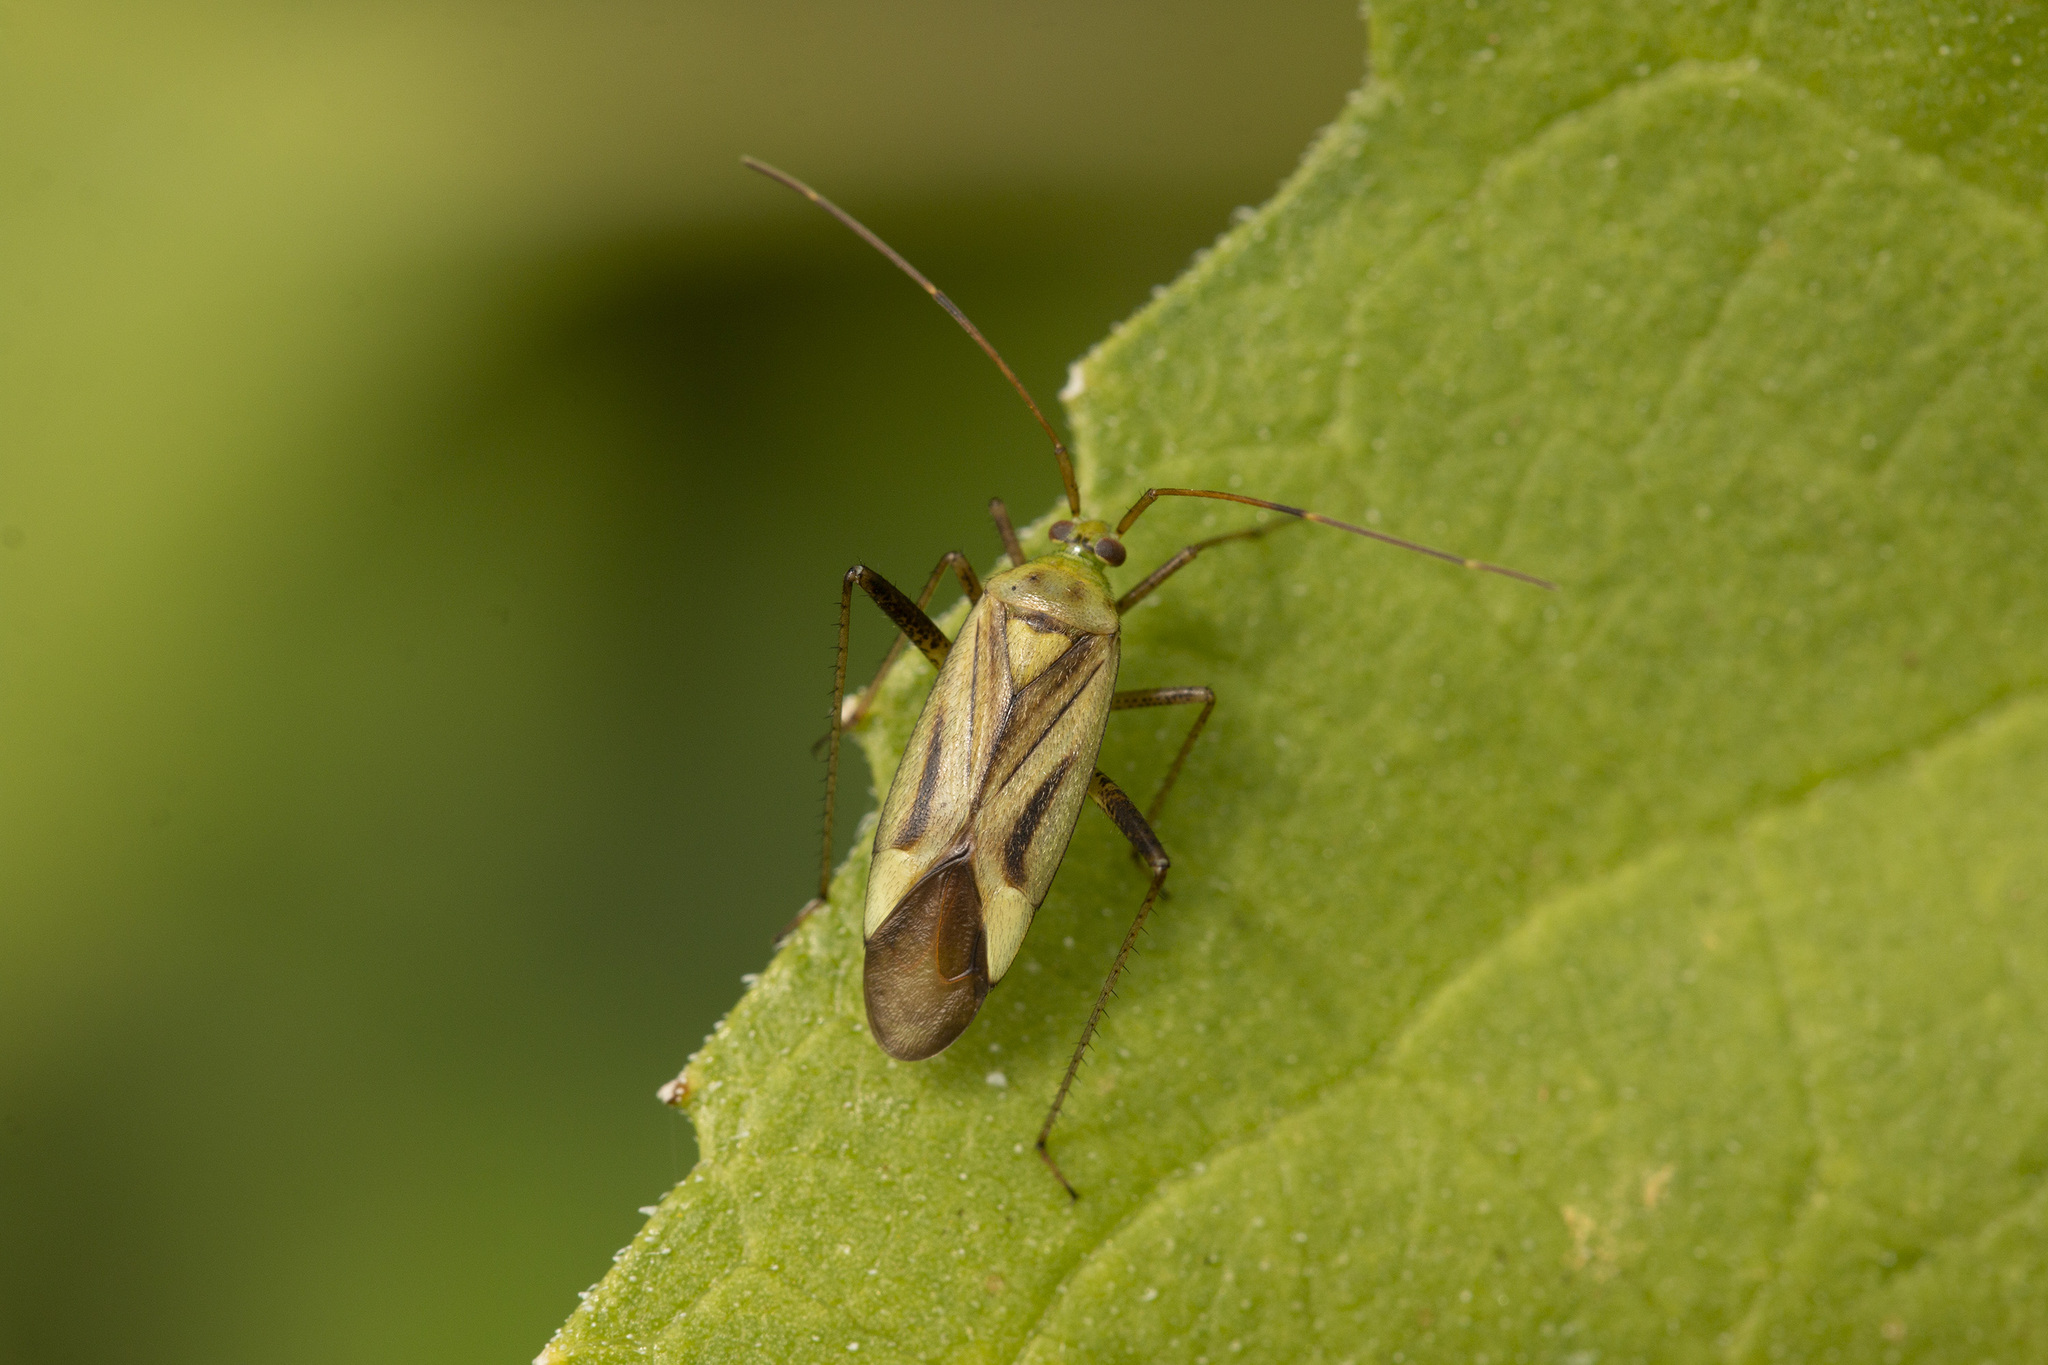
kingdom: Animalia
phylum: Arthropoda
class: Insecta
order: Hemiptera
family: Miridae
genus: Adelphocoris
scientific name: Adelphocoris lineolatus
